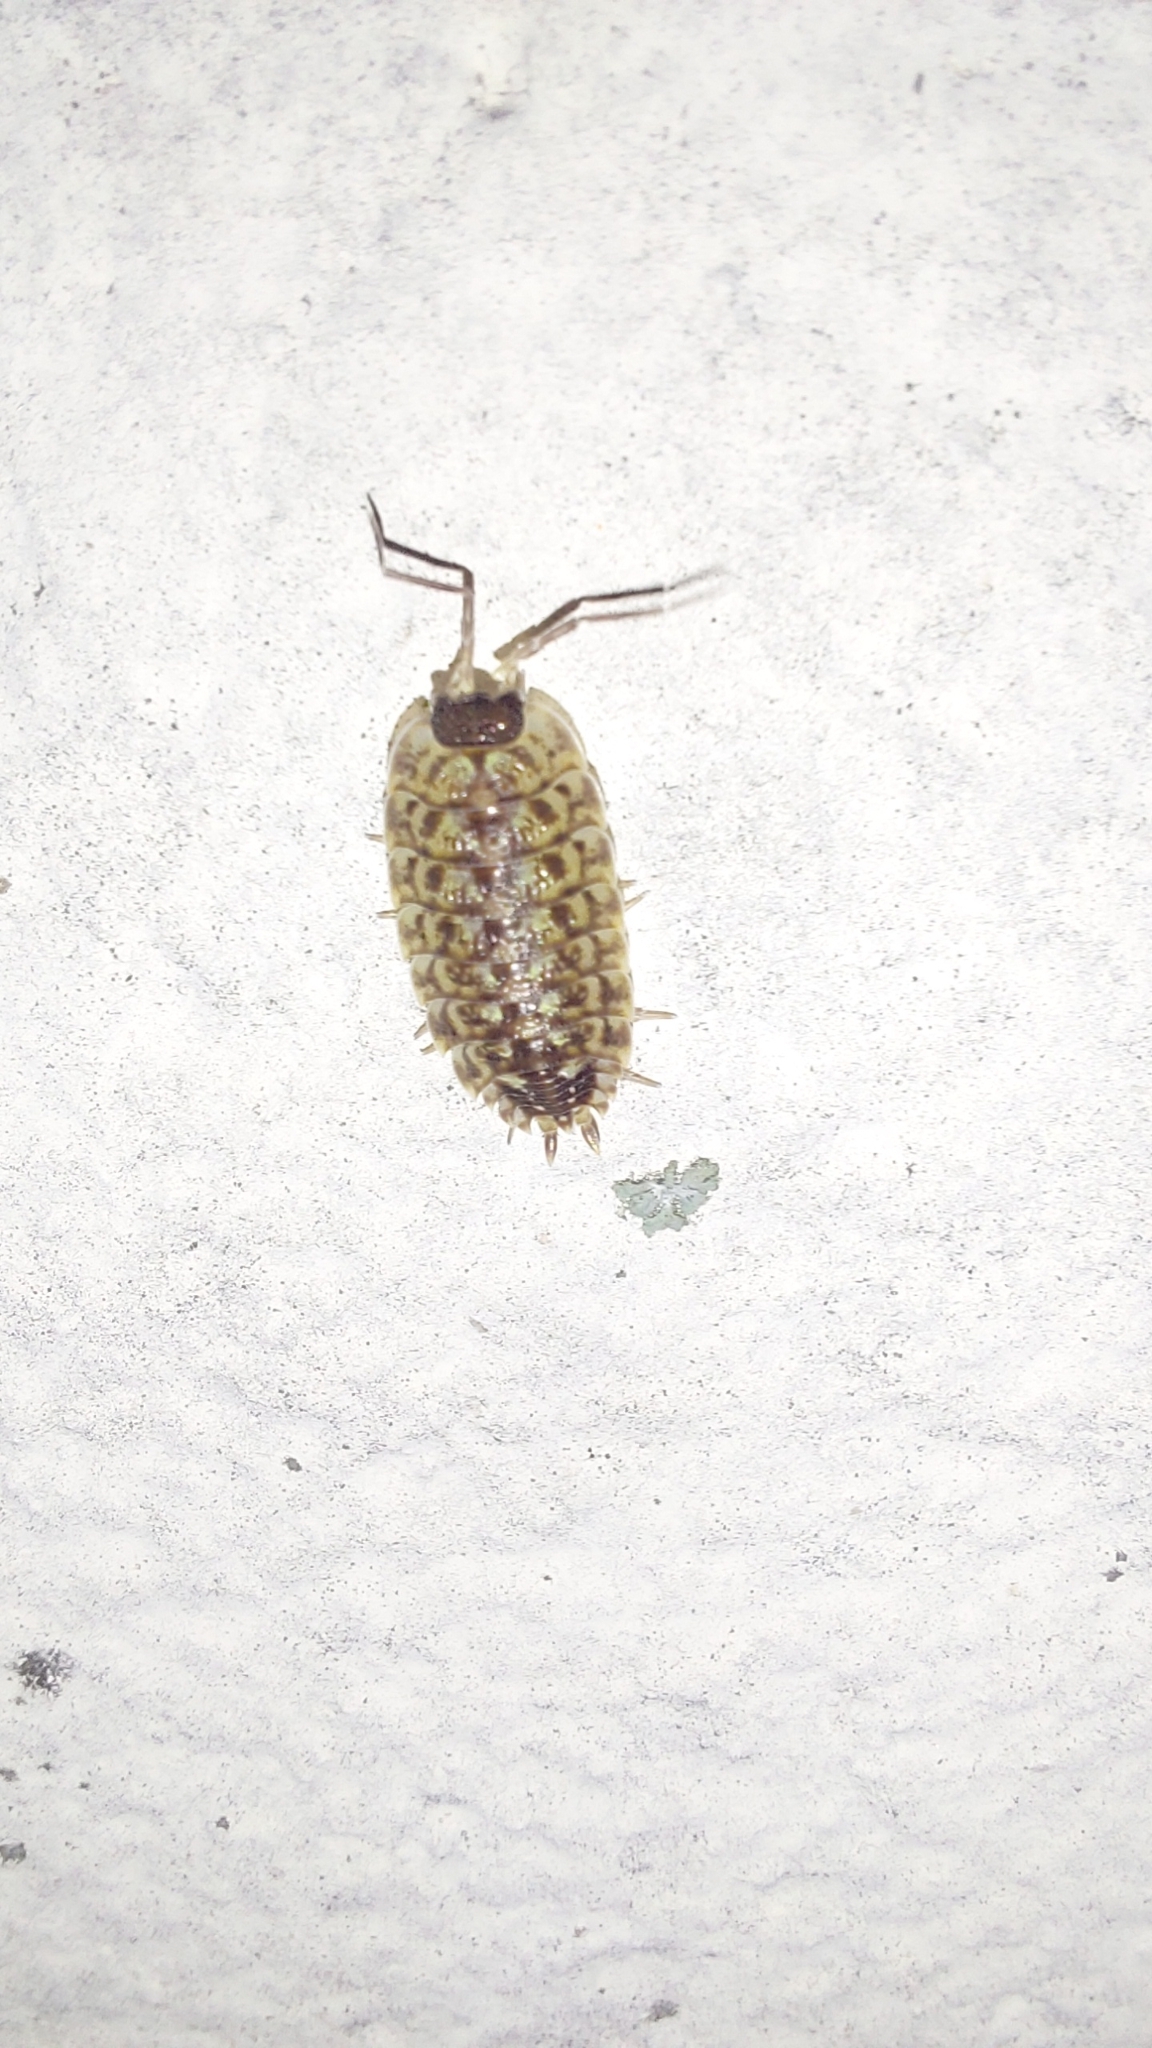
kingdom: Animalia
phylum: Arthropoda
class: Malacostraca
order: Isopoda
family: Porcellionidae
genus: Porcellio
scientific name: Porcellio spinicornis
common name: Painted woodlouse
